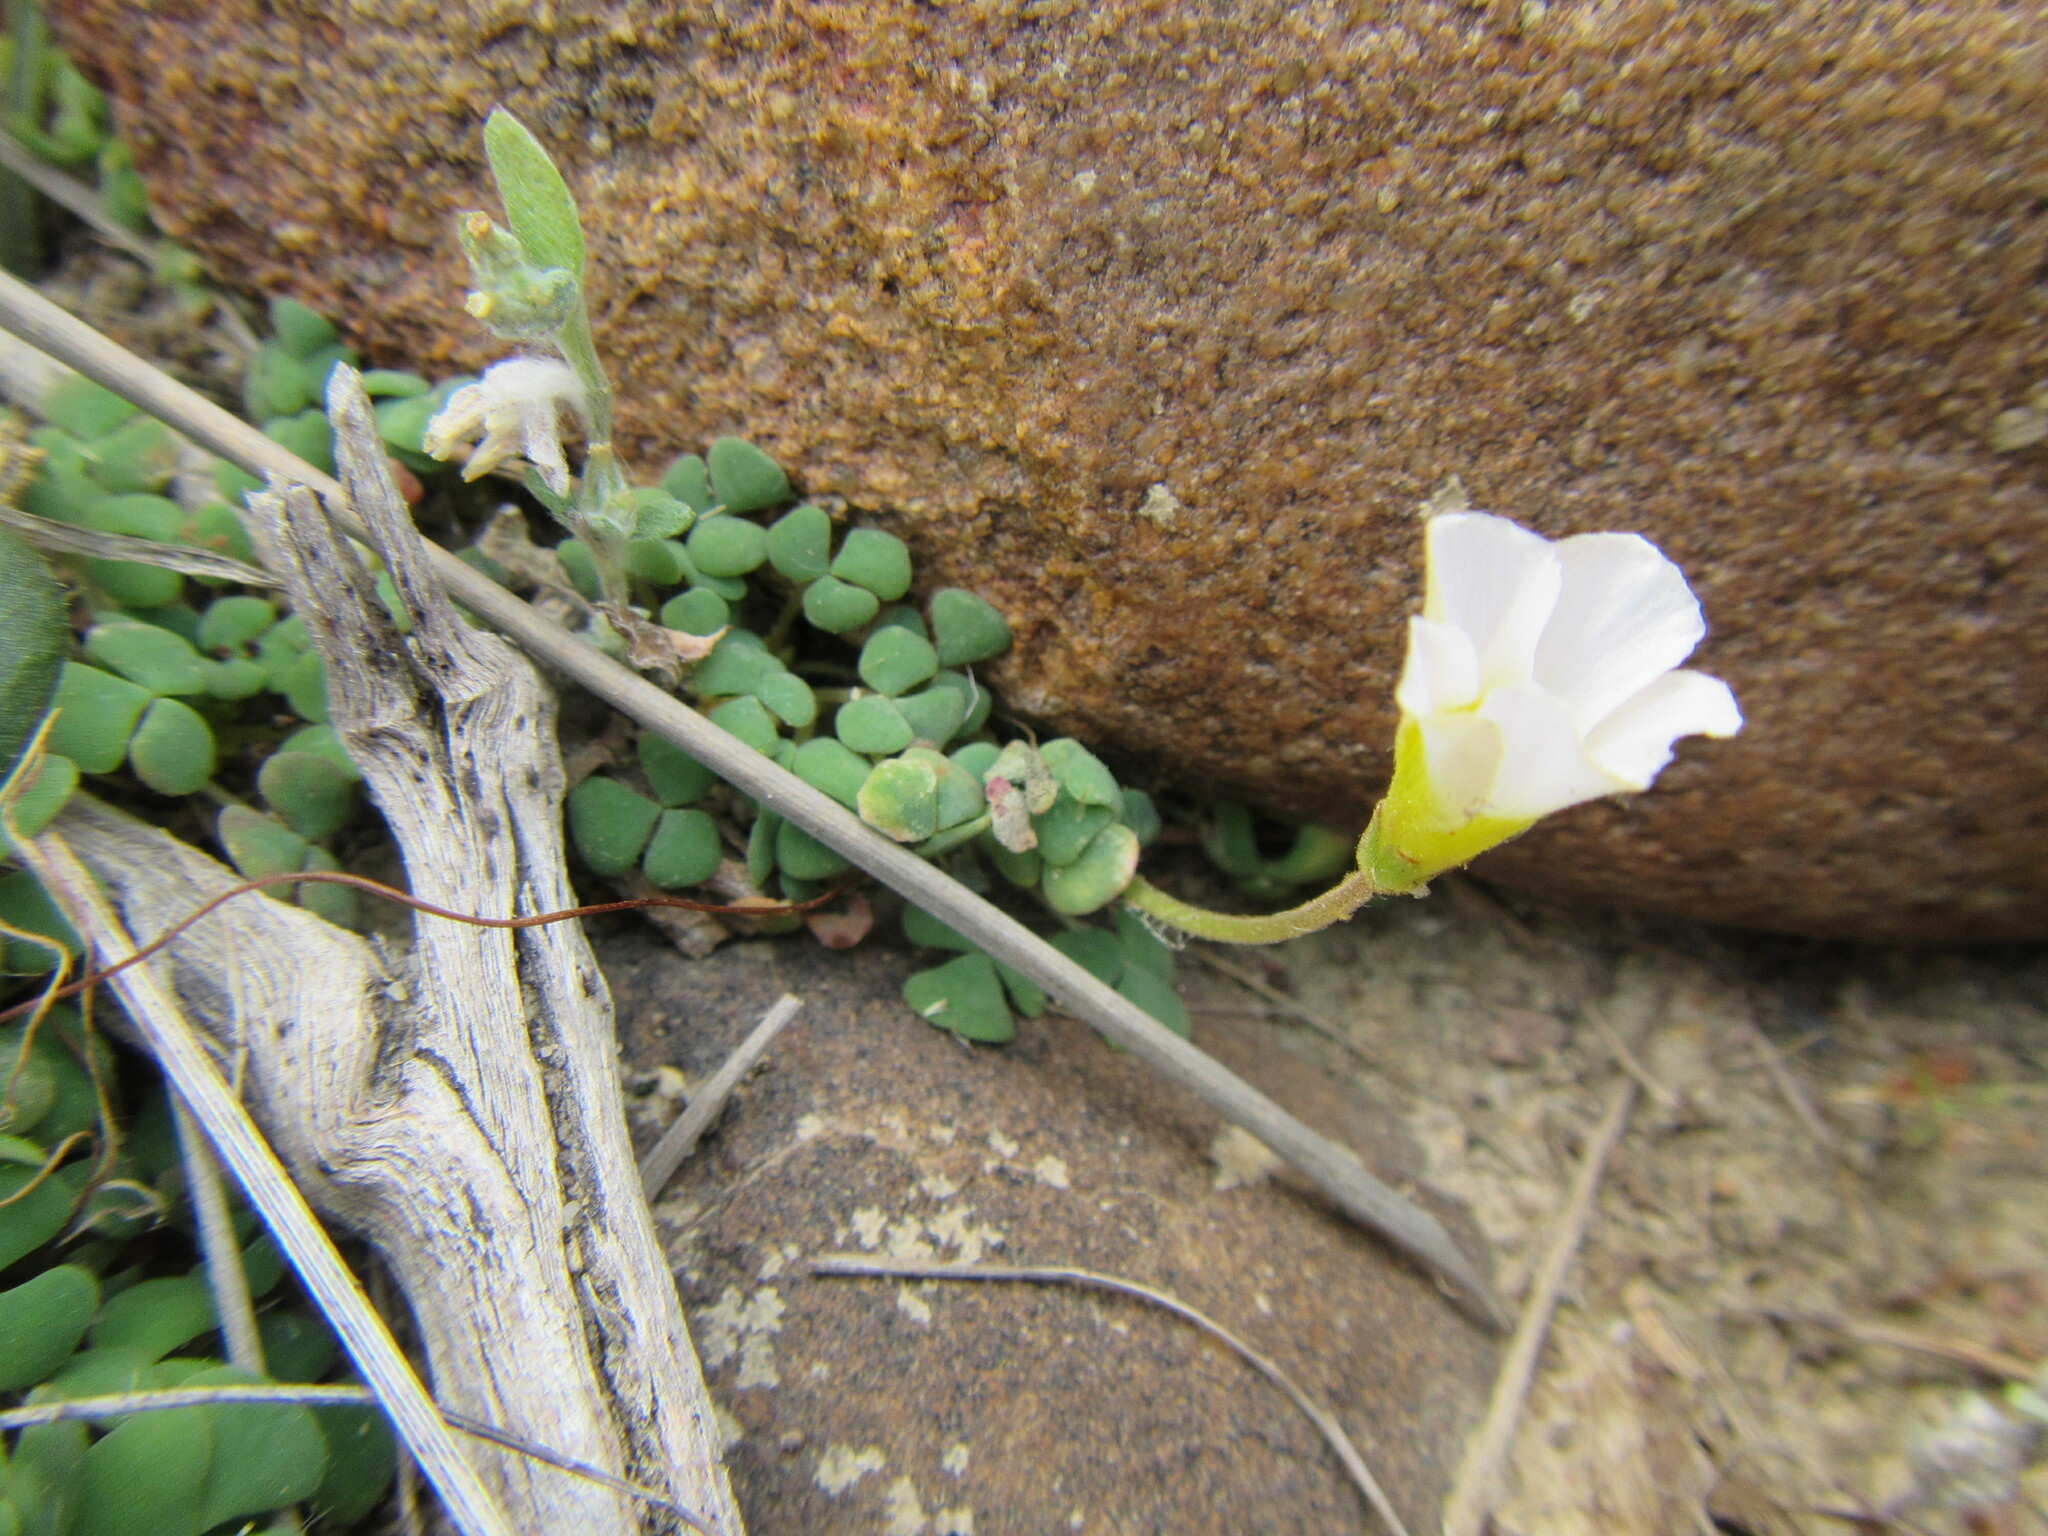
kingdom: Plantae
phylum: Tracheophyta
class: Magnoliopsida
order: Oxalidales
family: Oxalidaceae
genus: Oxalis
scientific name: Oxalis fergusoniae
